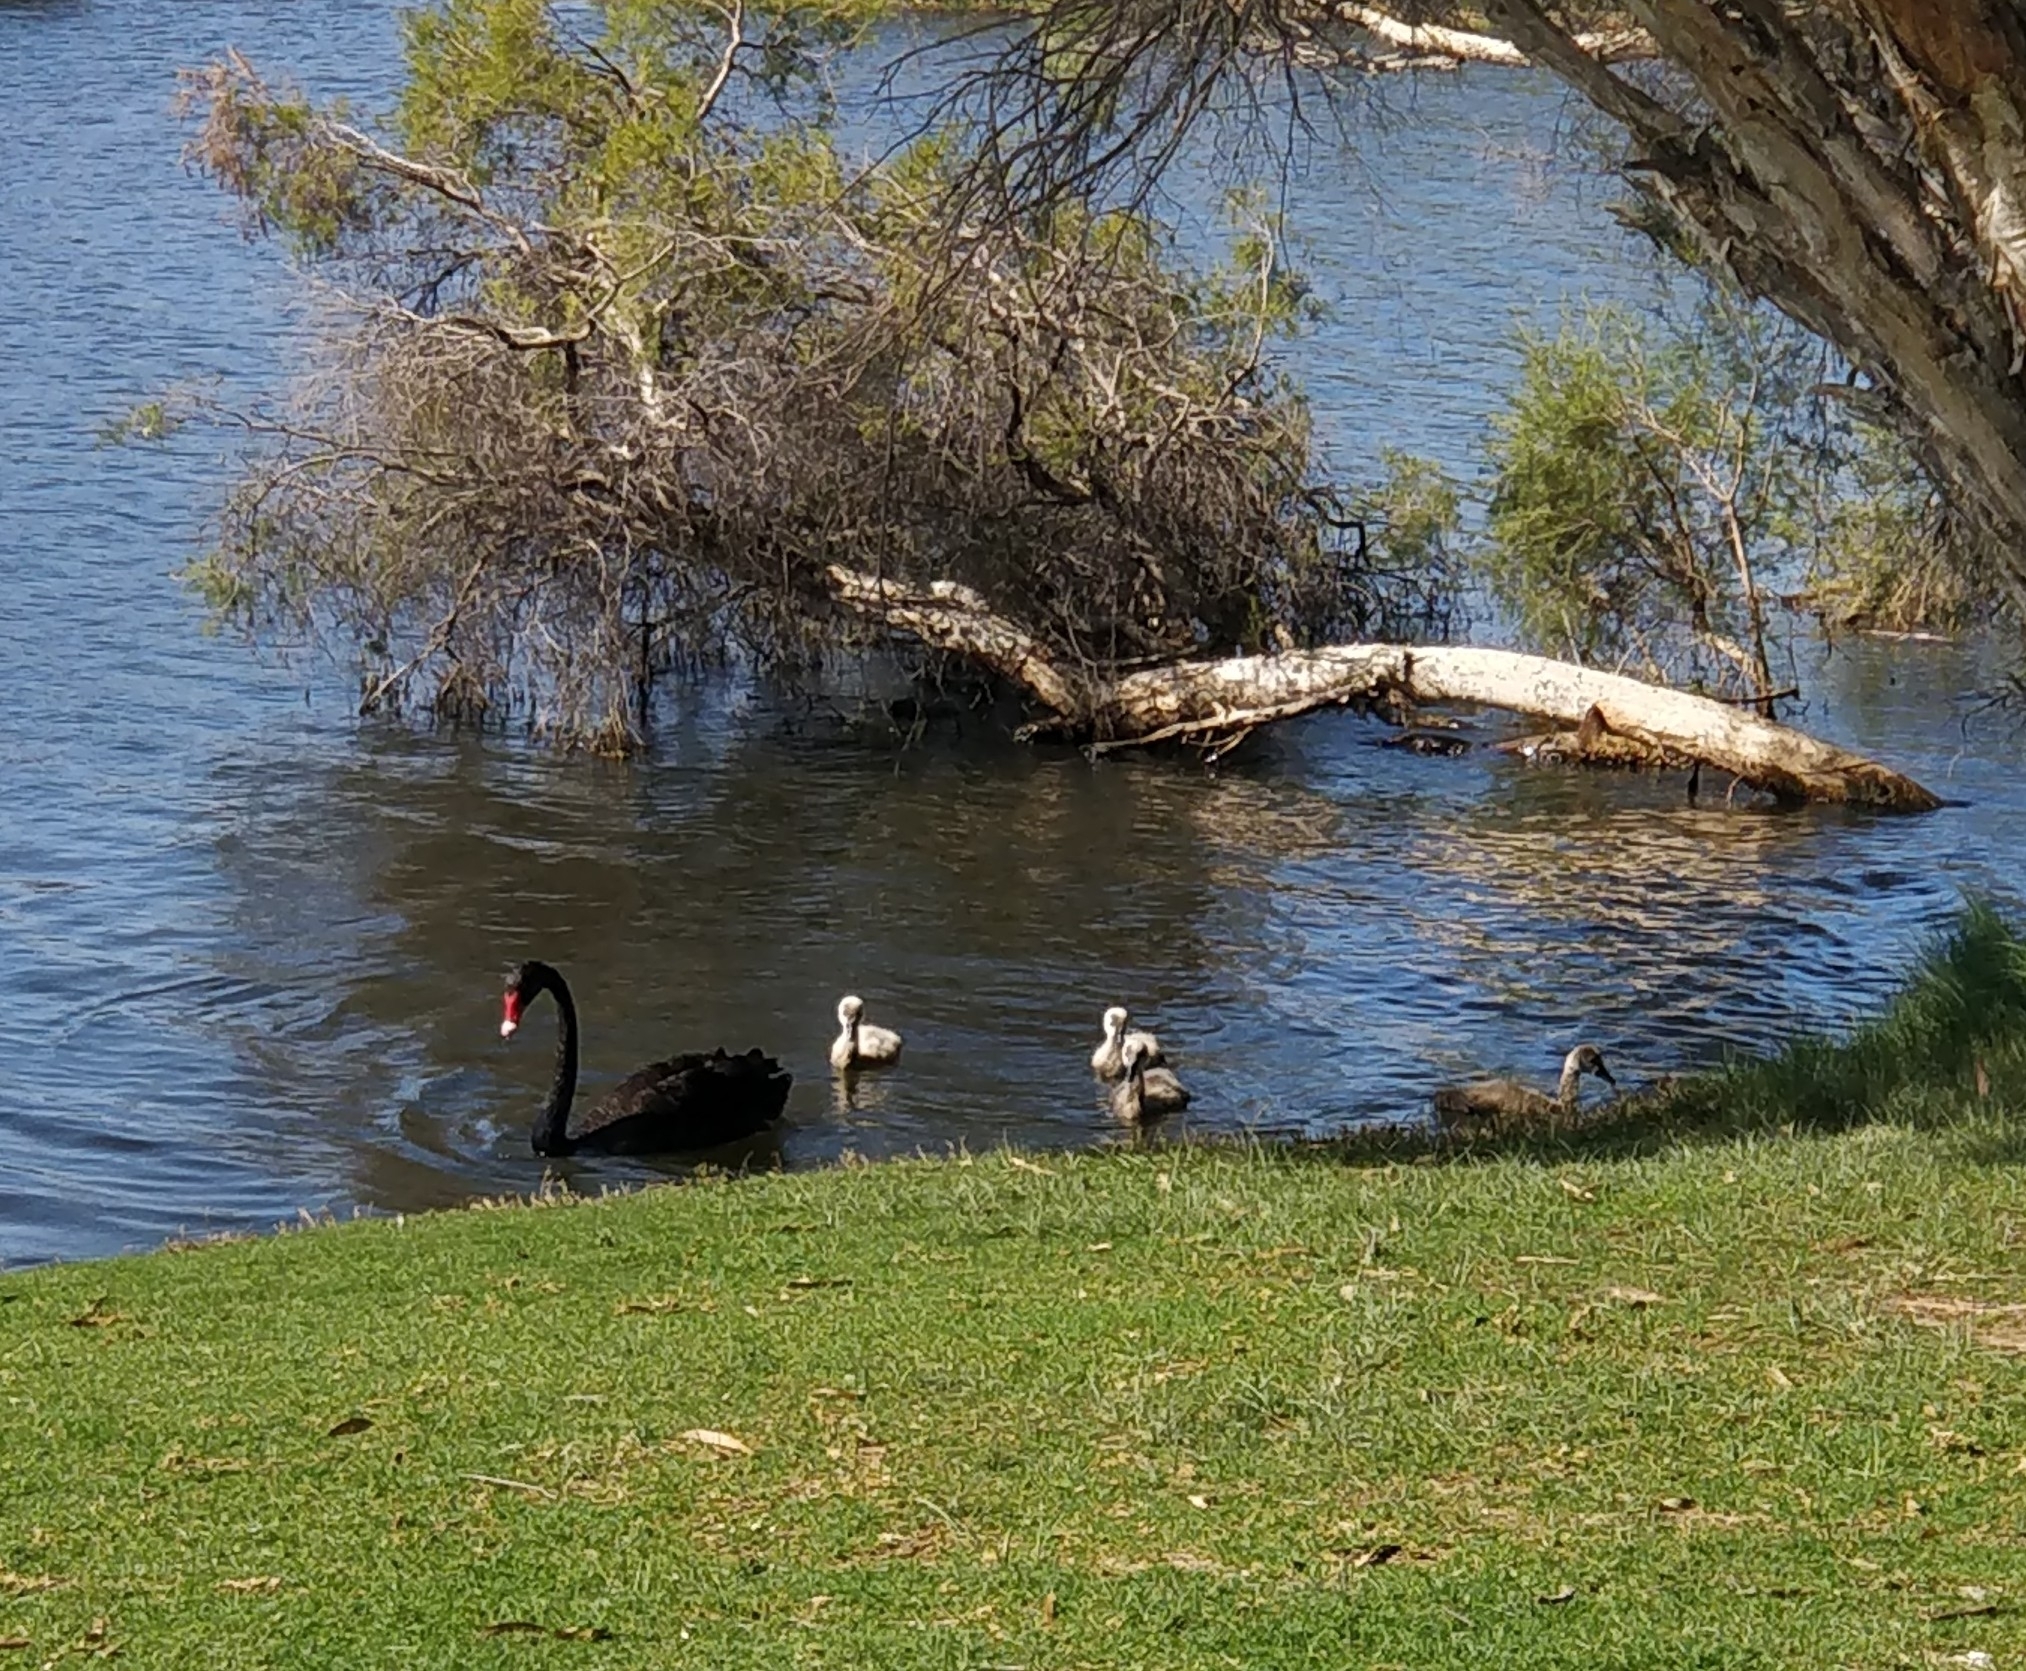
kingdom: Animalia
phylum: Chordata
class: Aves
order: Anseriformes
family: Anatidae
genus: Cygnus
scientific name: Cygnus atratus
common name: Black swan
